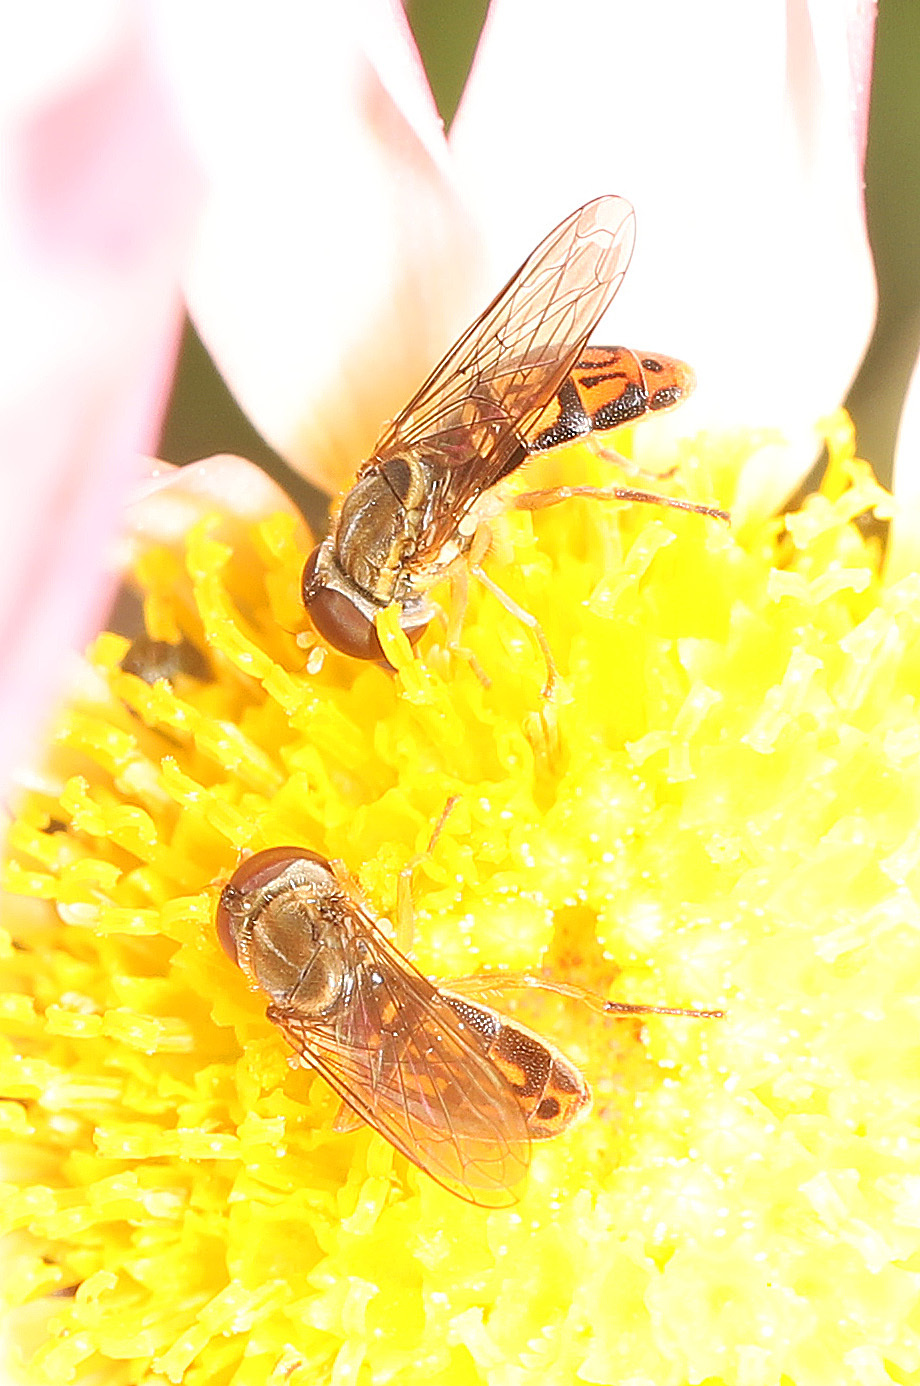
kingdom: Animalia
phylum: Arthropoda
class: Insecta
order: Diptera
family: Syrphidae
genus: Toxomerus
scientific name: Toxomerus marginatus
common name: Syrphid fly
